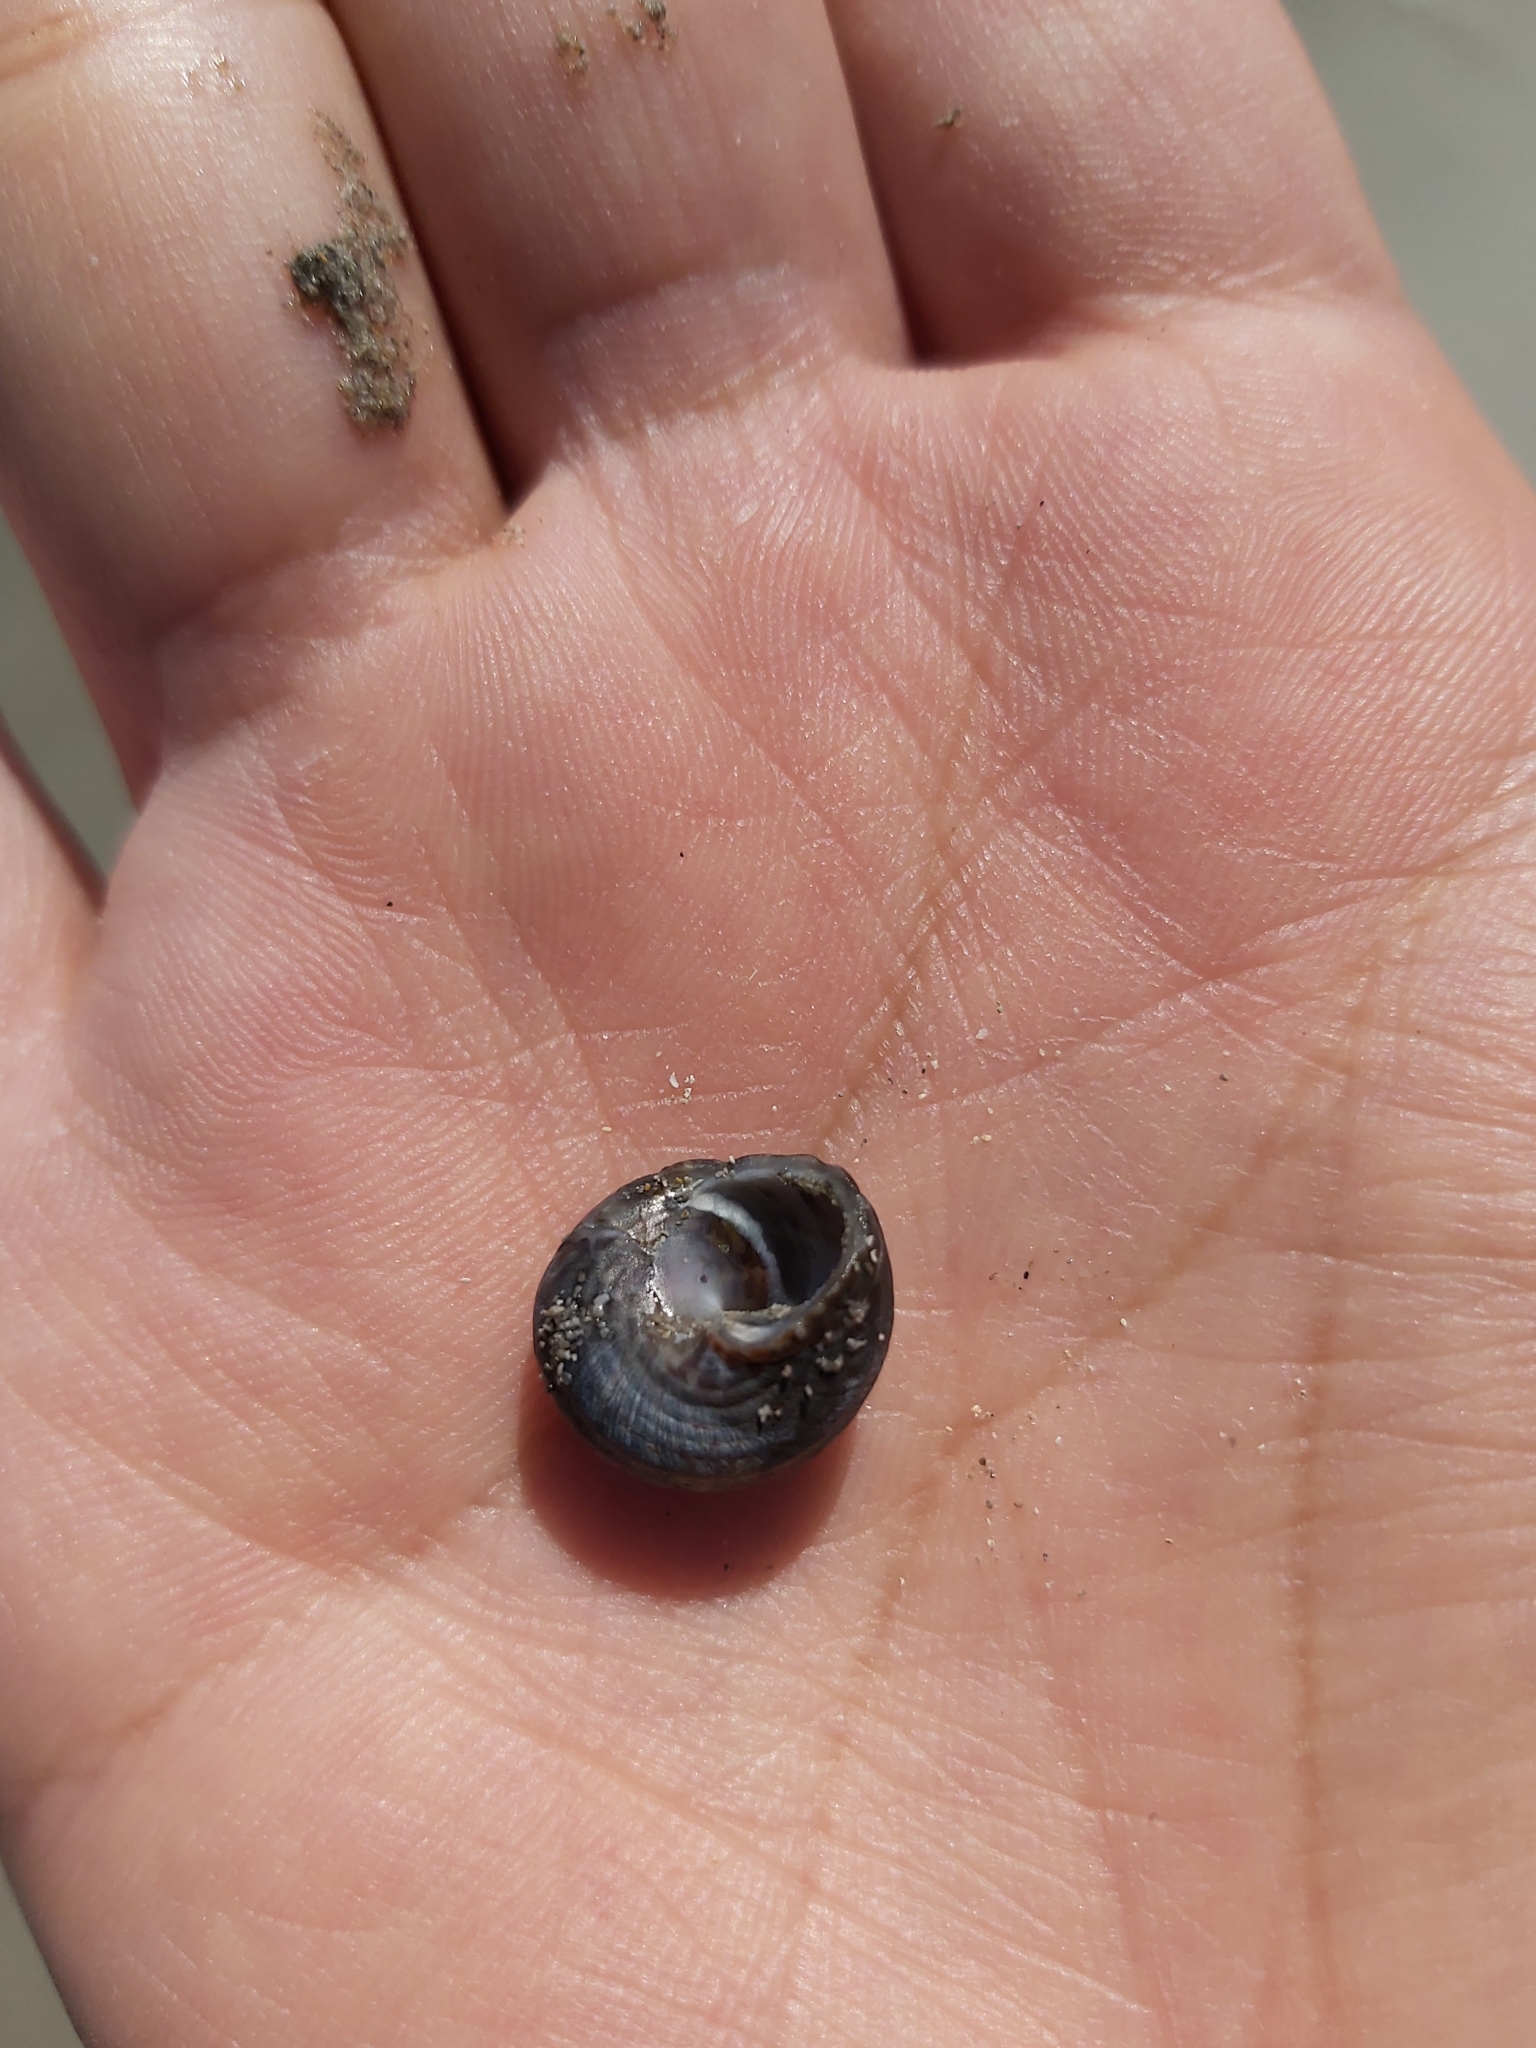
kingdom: Animalia
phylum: Mollusca
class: Gastropoda
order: Trochida
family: Trochidae
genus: Austrocochlea
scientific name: Austrocochlea constricta
